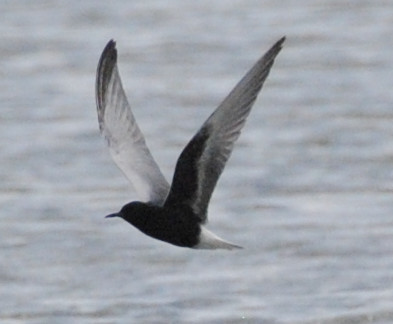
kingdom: Animalia
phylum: Chordata
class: Aves
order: Charadriiformes
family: Laridae
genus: Chlidonias
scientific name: Chlidonias leucopterus
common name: White-winged tern
